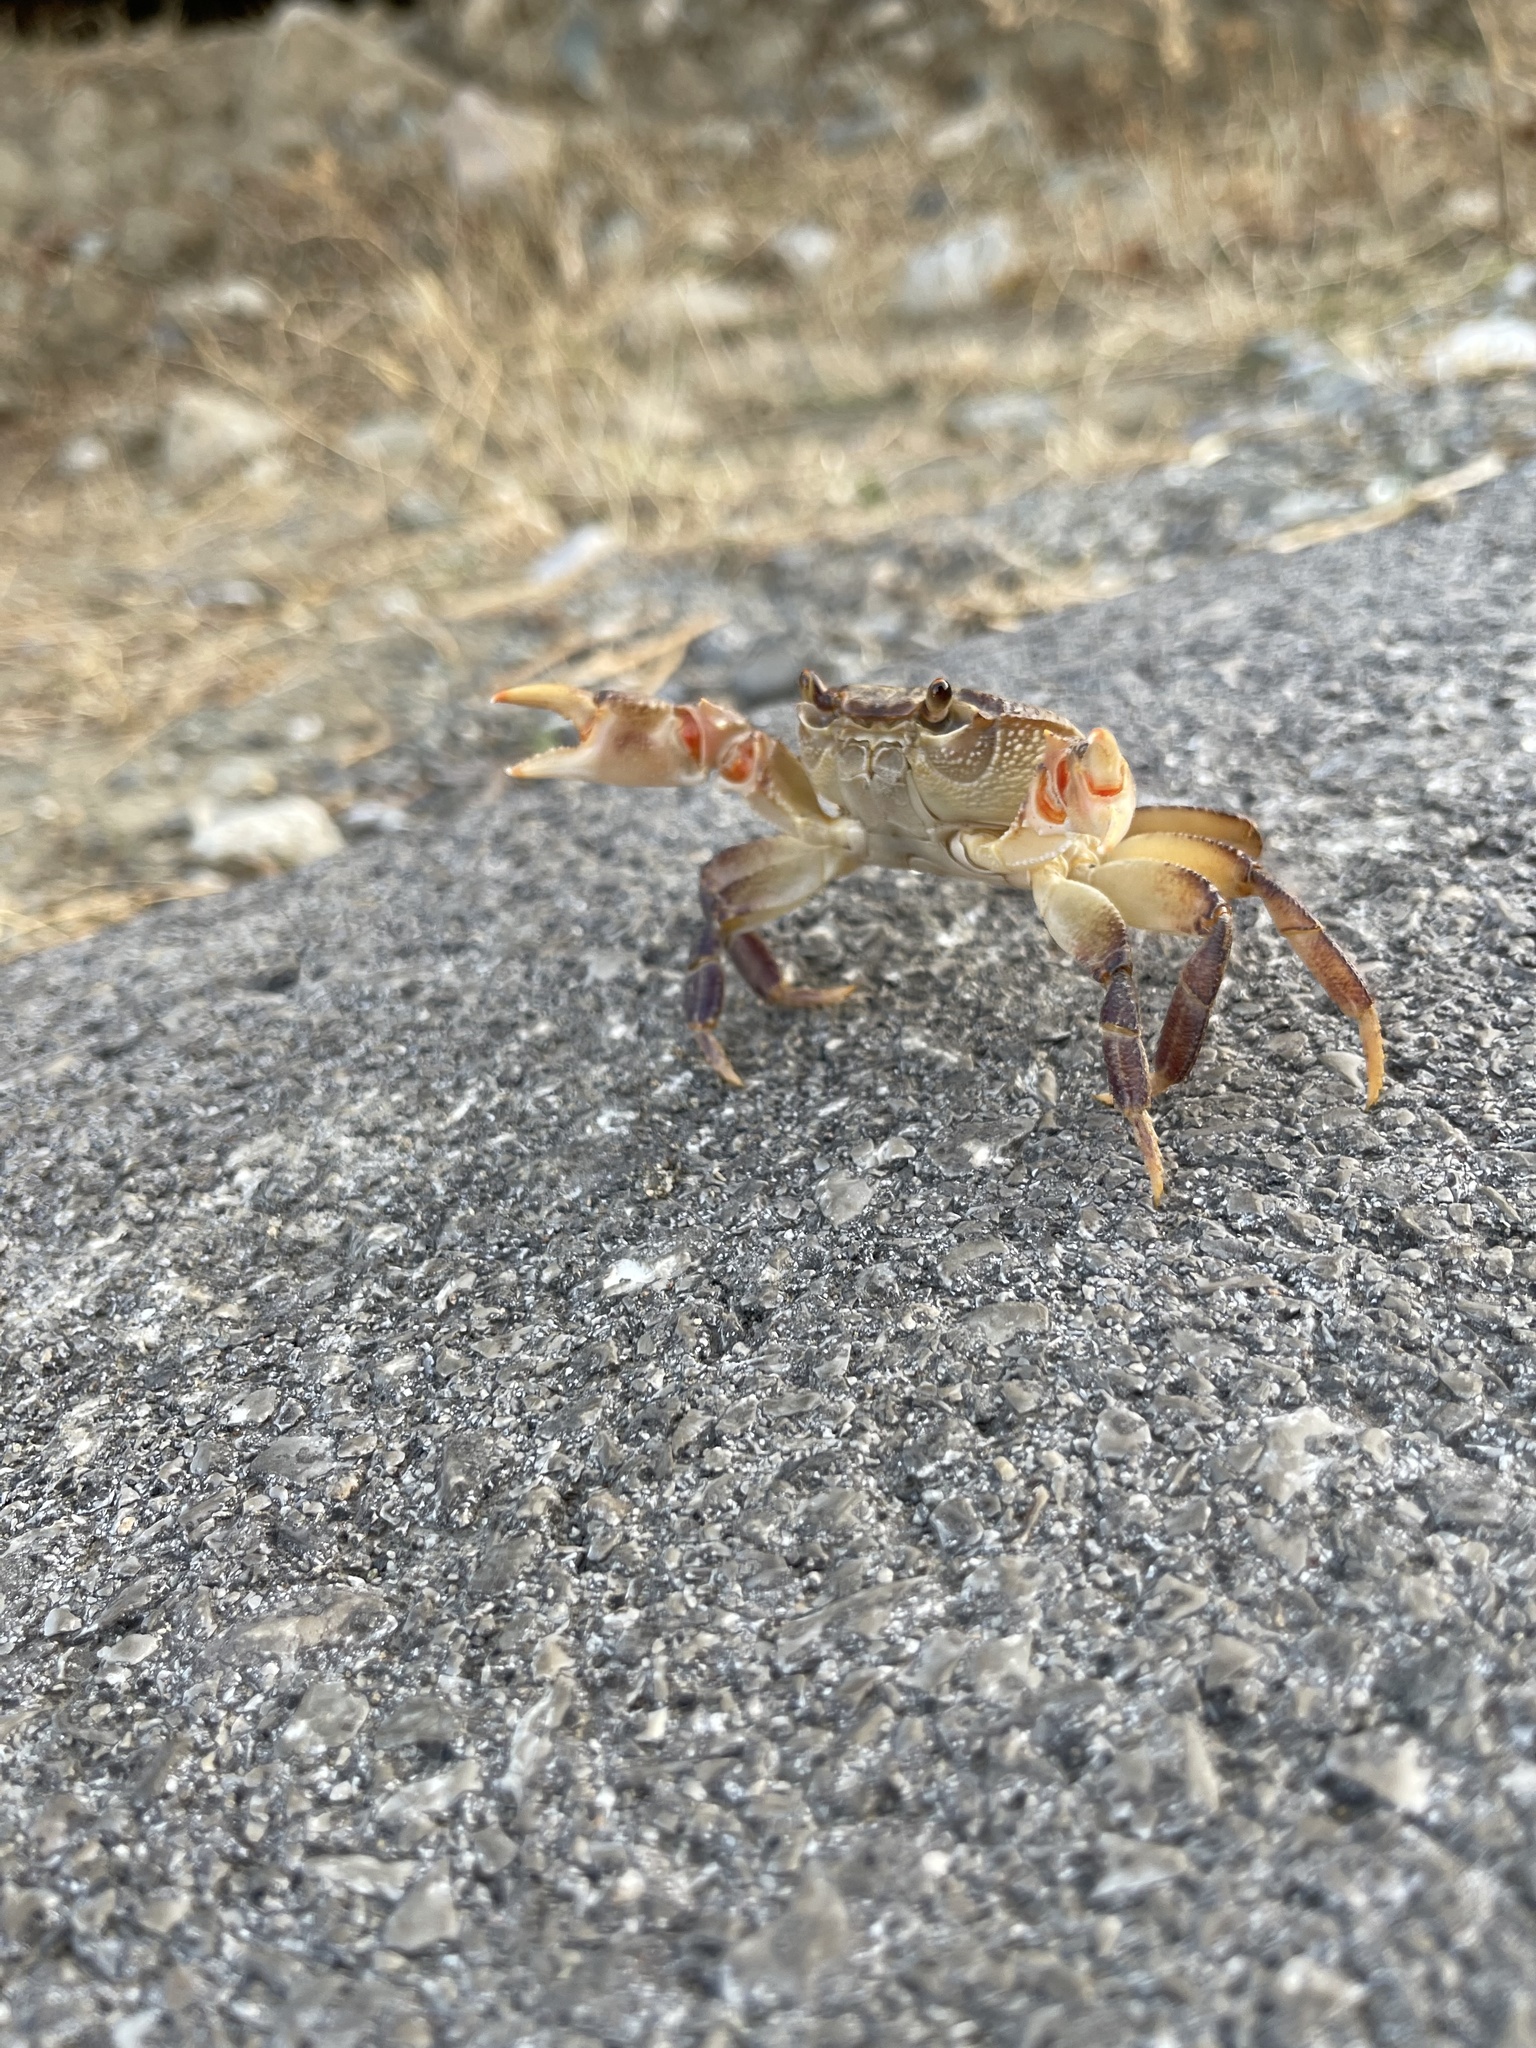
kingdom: Animalia
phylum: Arthropoda
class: Malacostraca
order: Decapoda
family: Potamidae
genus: Potamon
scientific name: Potamon hippocratis
